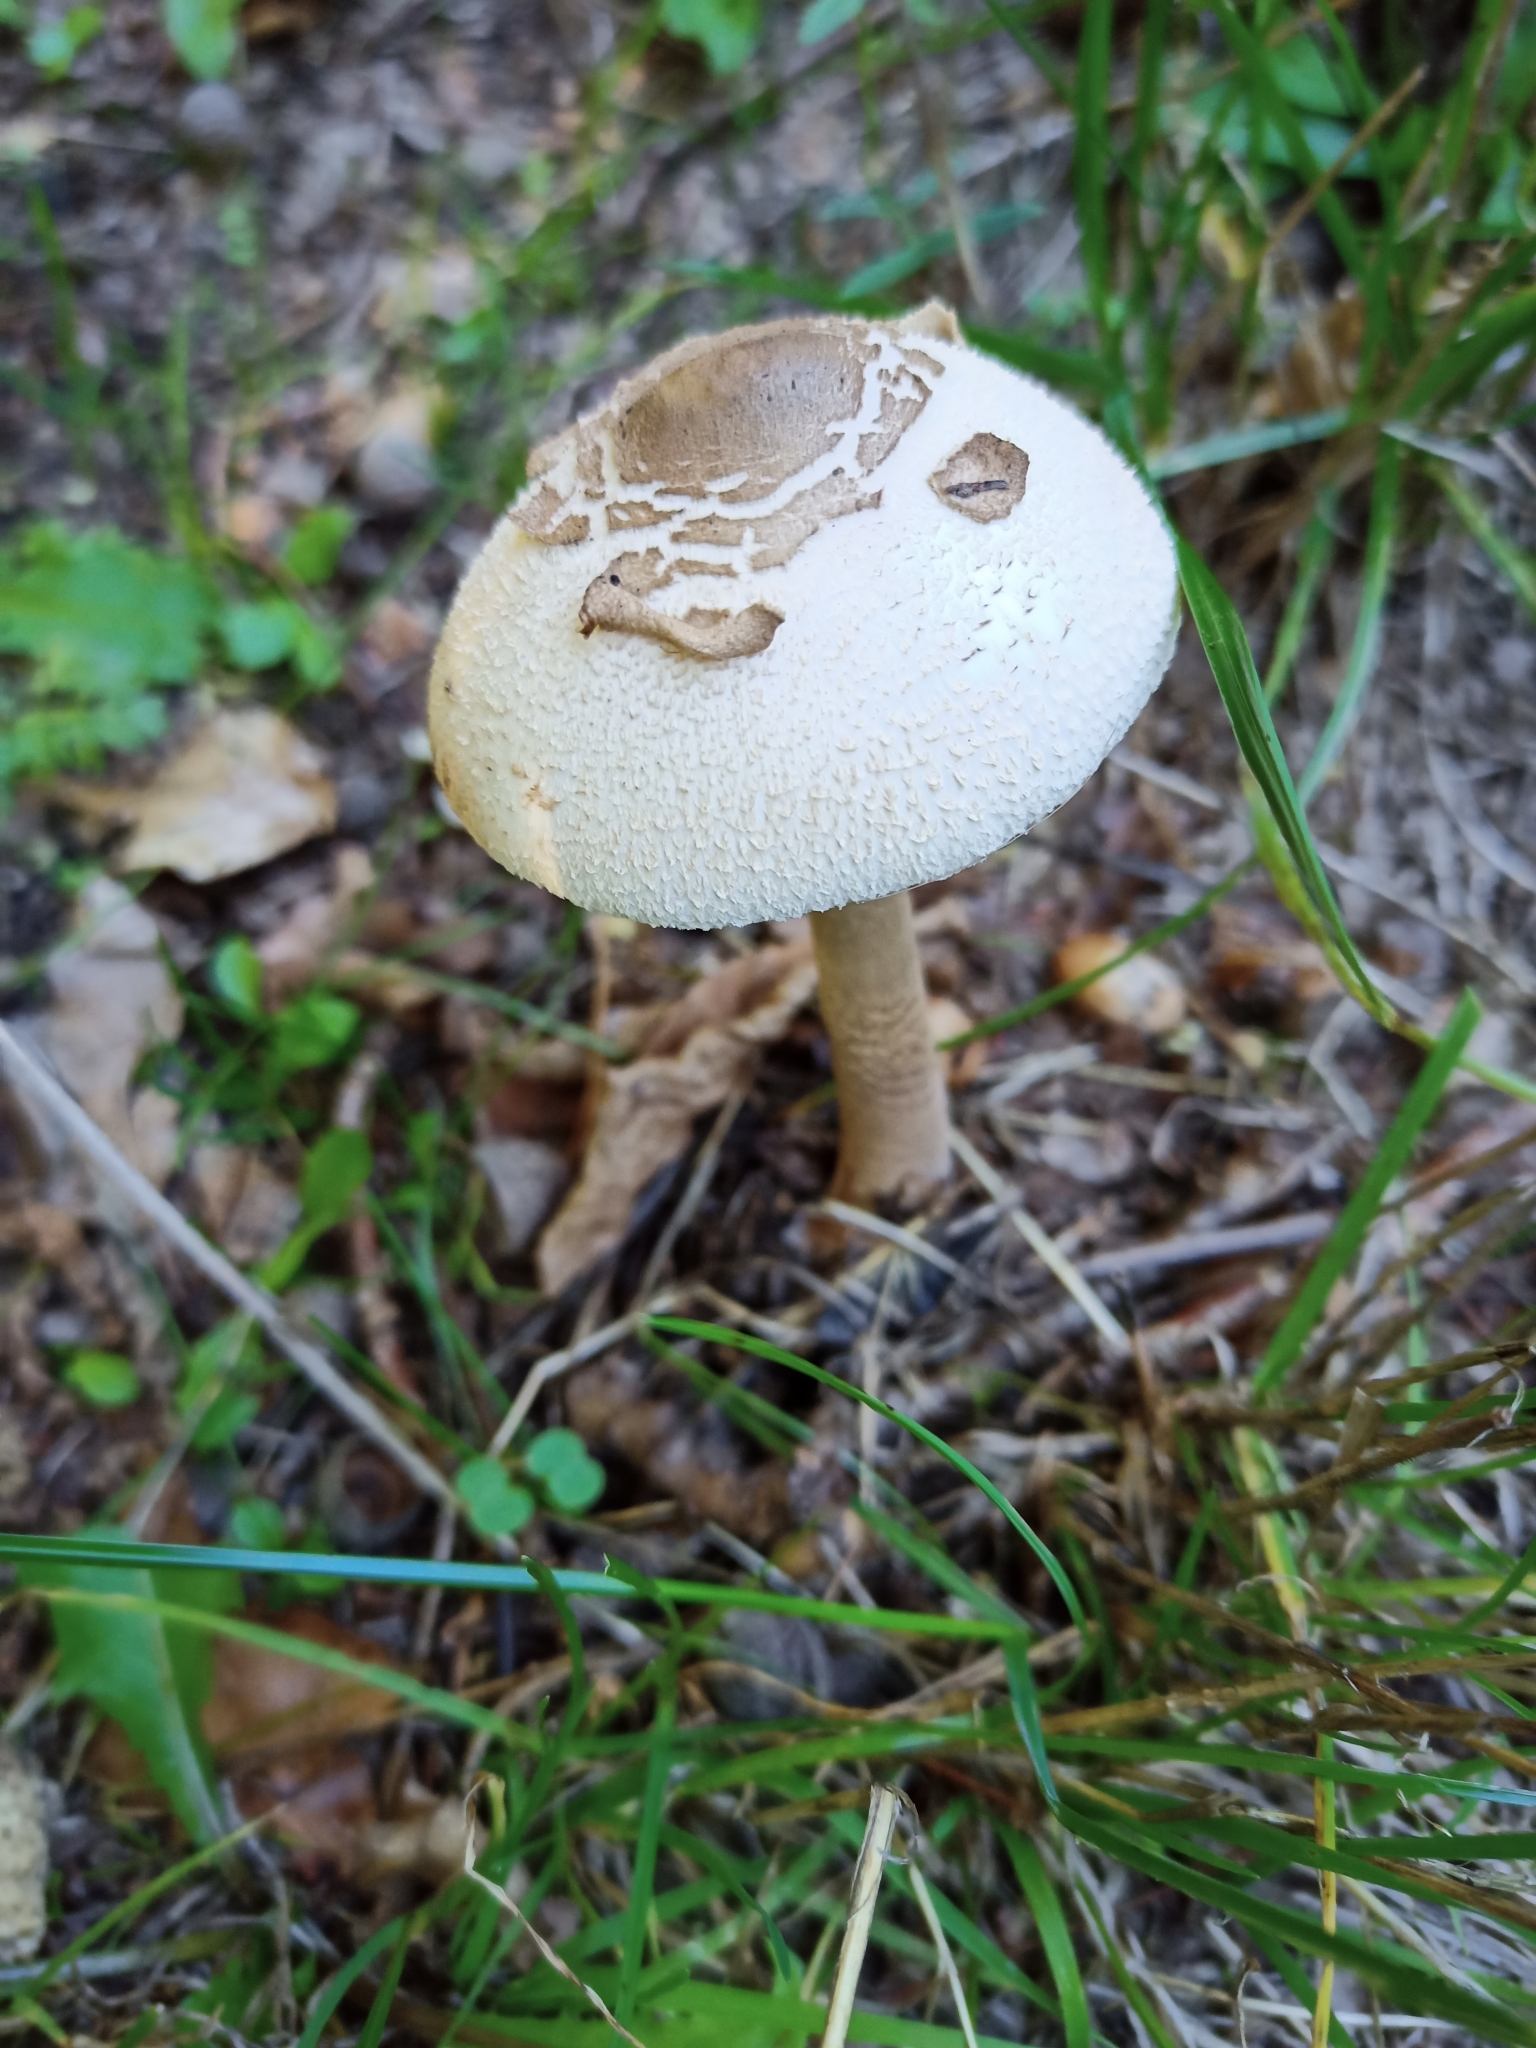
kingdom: Fungi
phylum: Basidiomycota
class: Agaricomycetes
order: Agaricales
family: Agaricaceae
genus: Macrolepiota
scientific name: Macrolepiota procera
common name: Parasol
